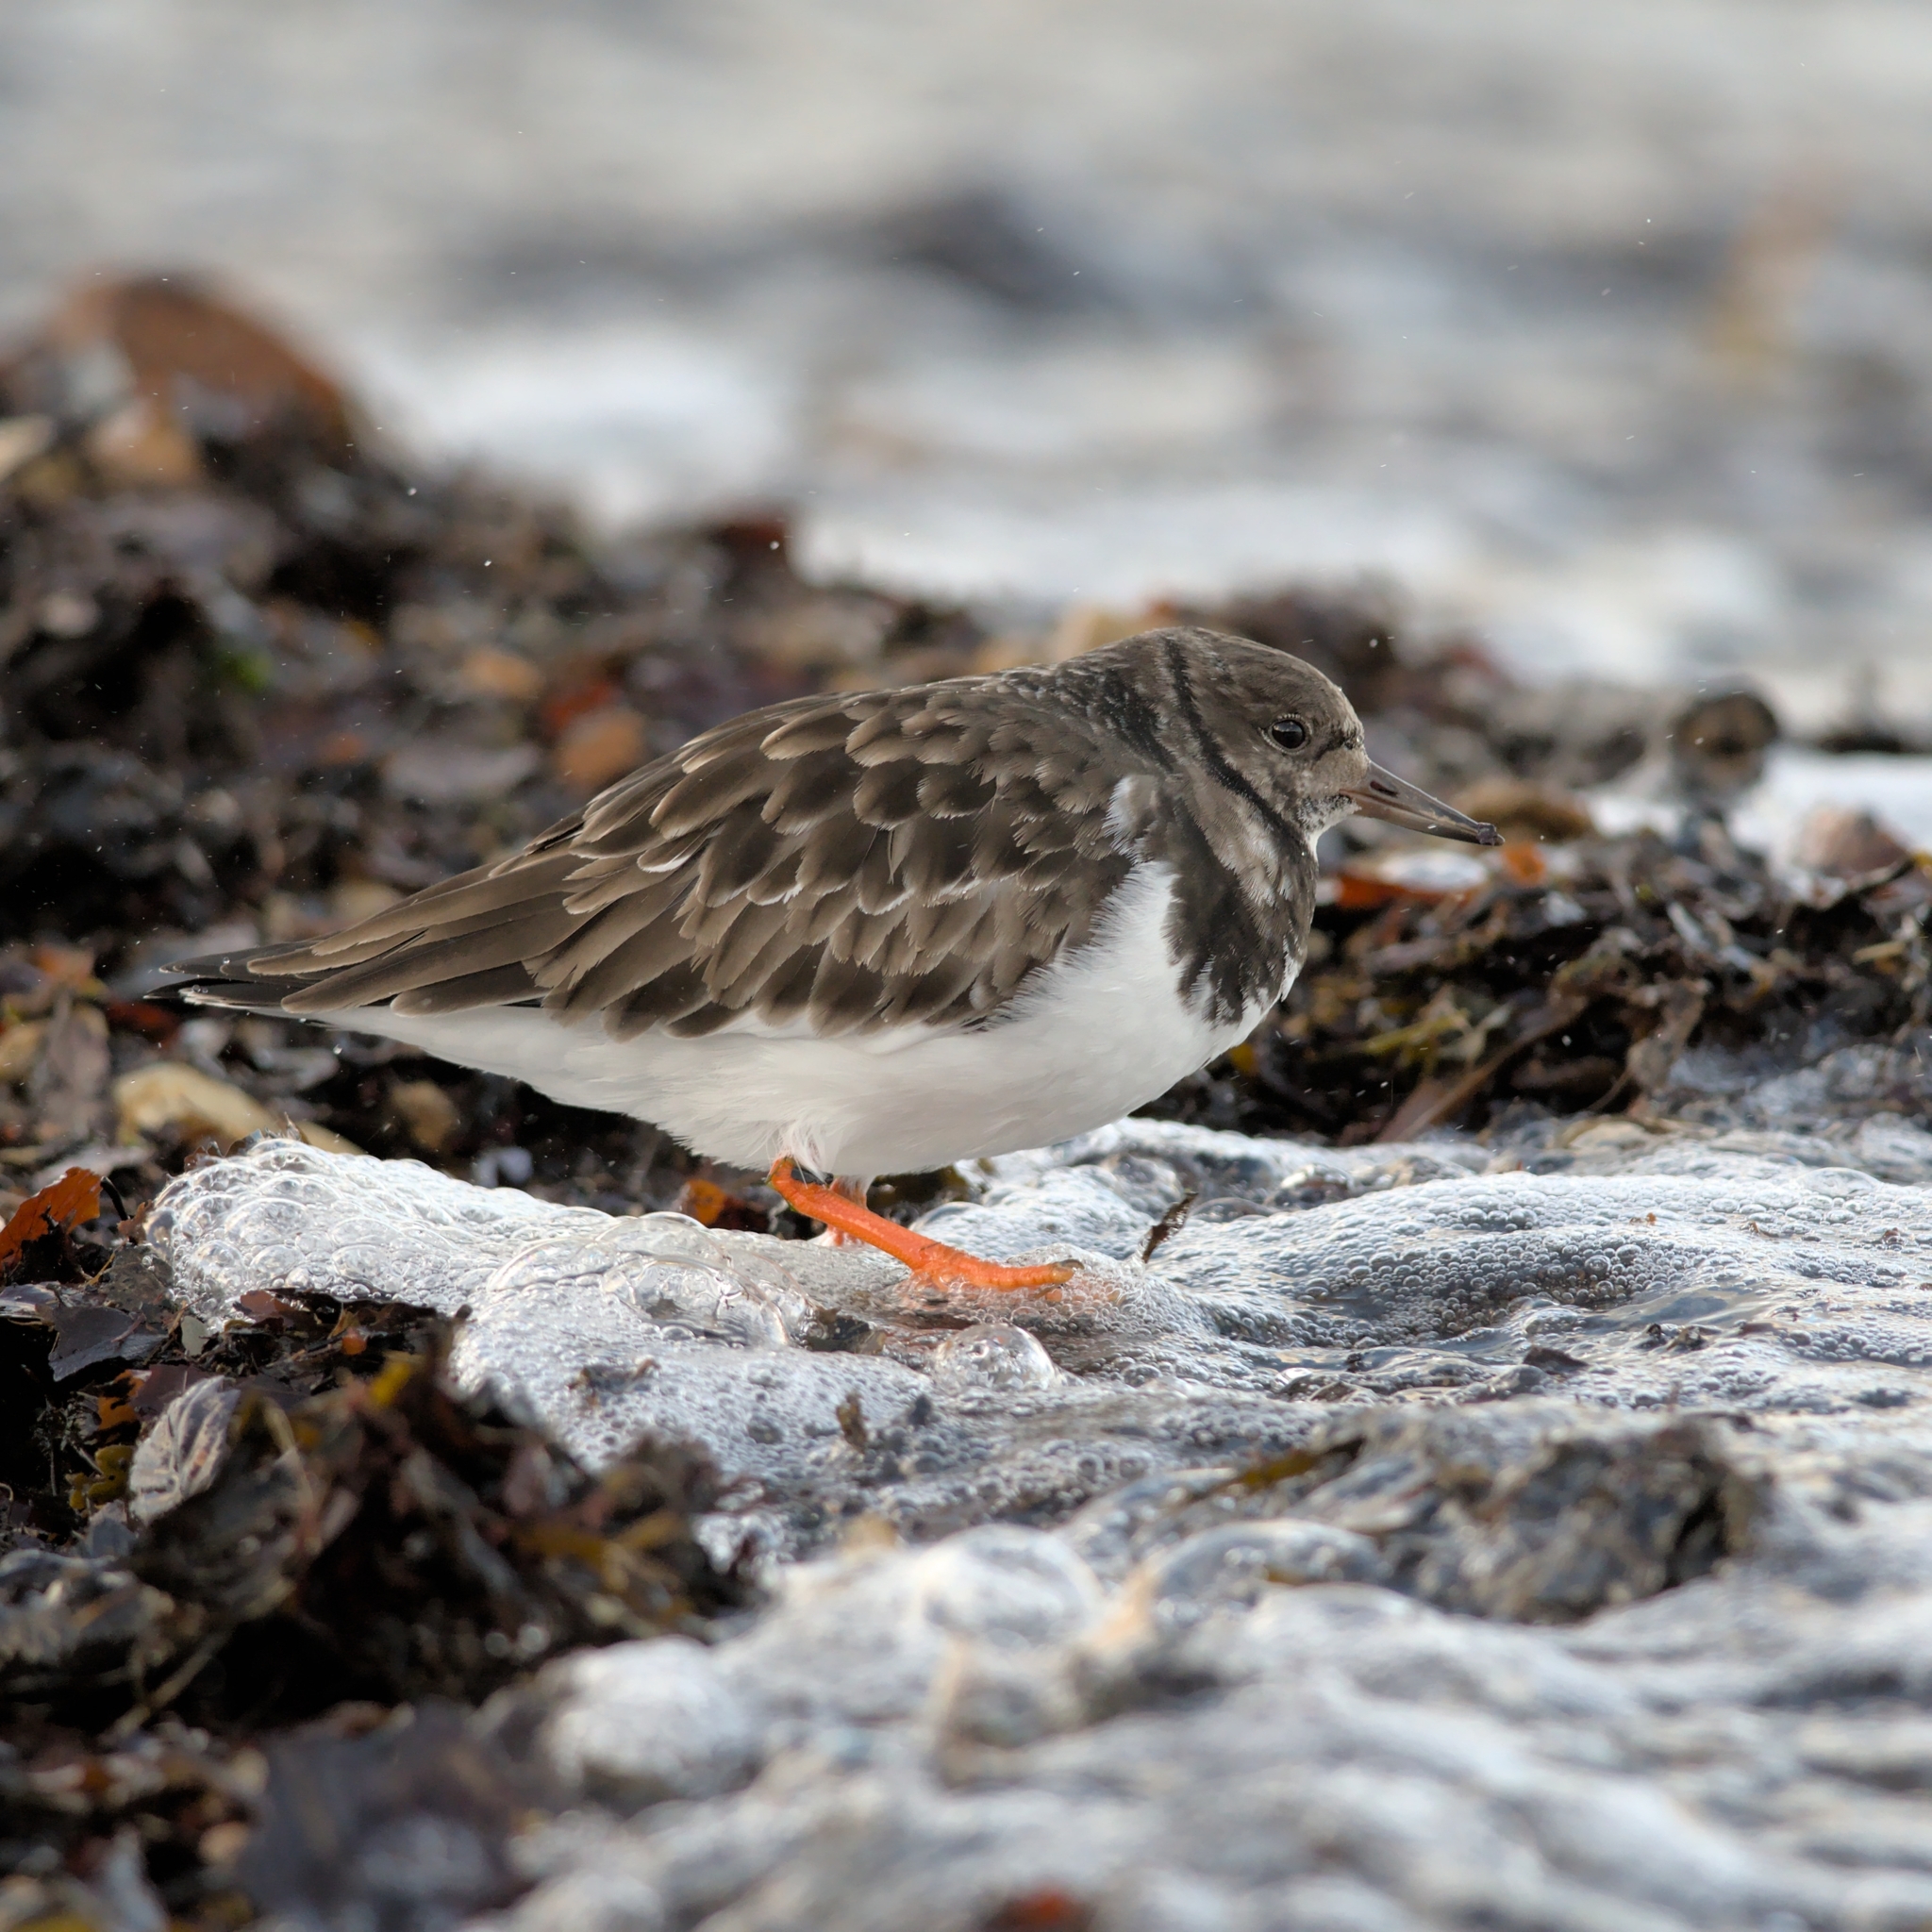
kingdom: Animalia
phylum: Chordata
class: Aves
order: Charadriiformes
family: Scolopacidae
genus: Arenaria
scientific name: Arenaria interpres
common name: Ruddy turnstone
